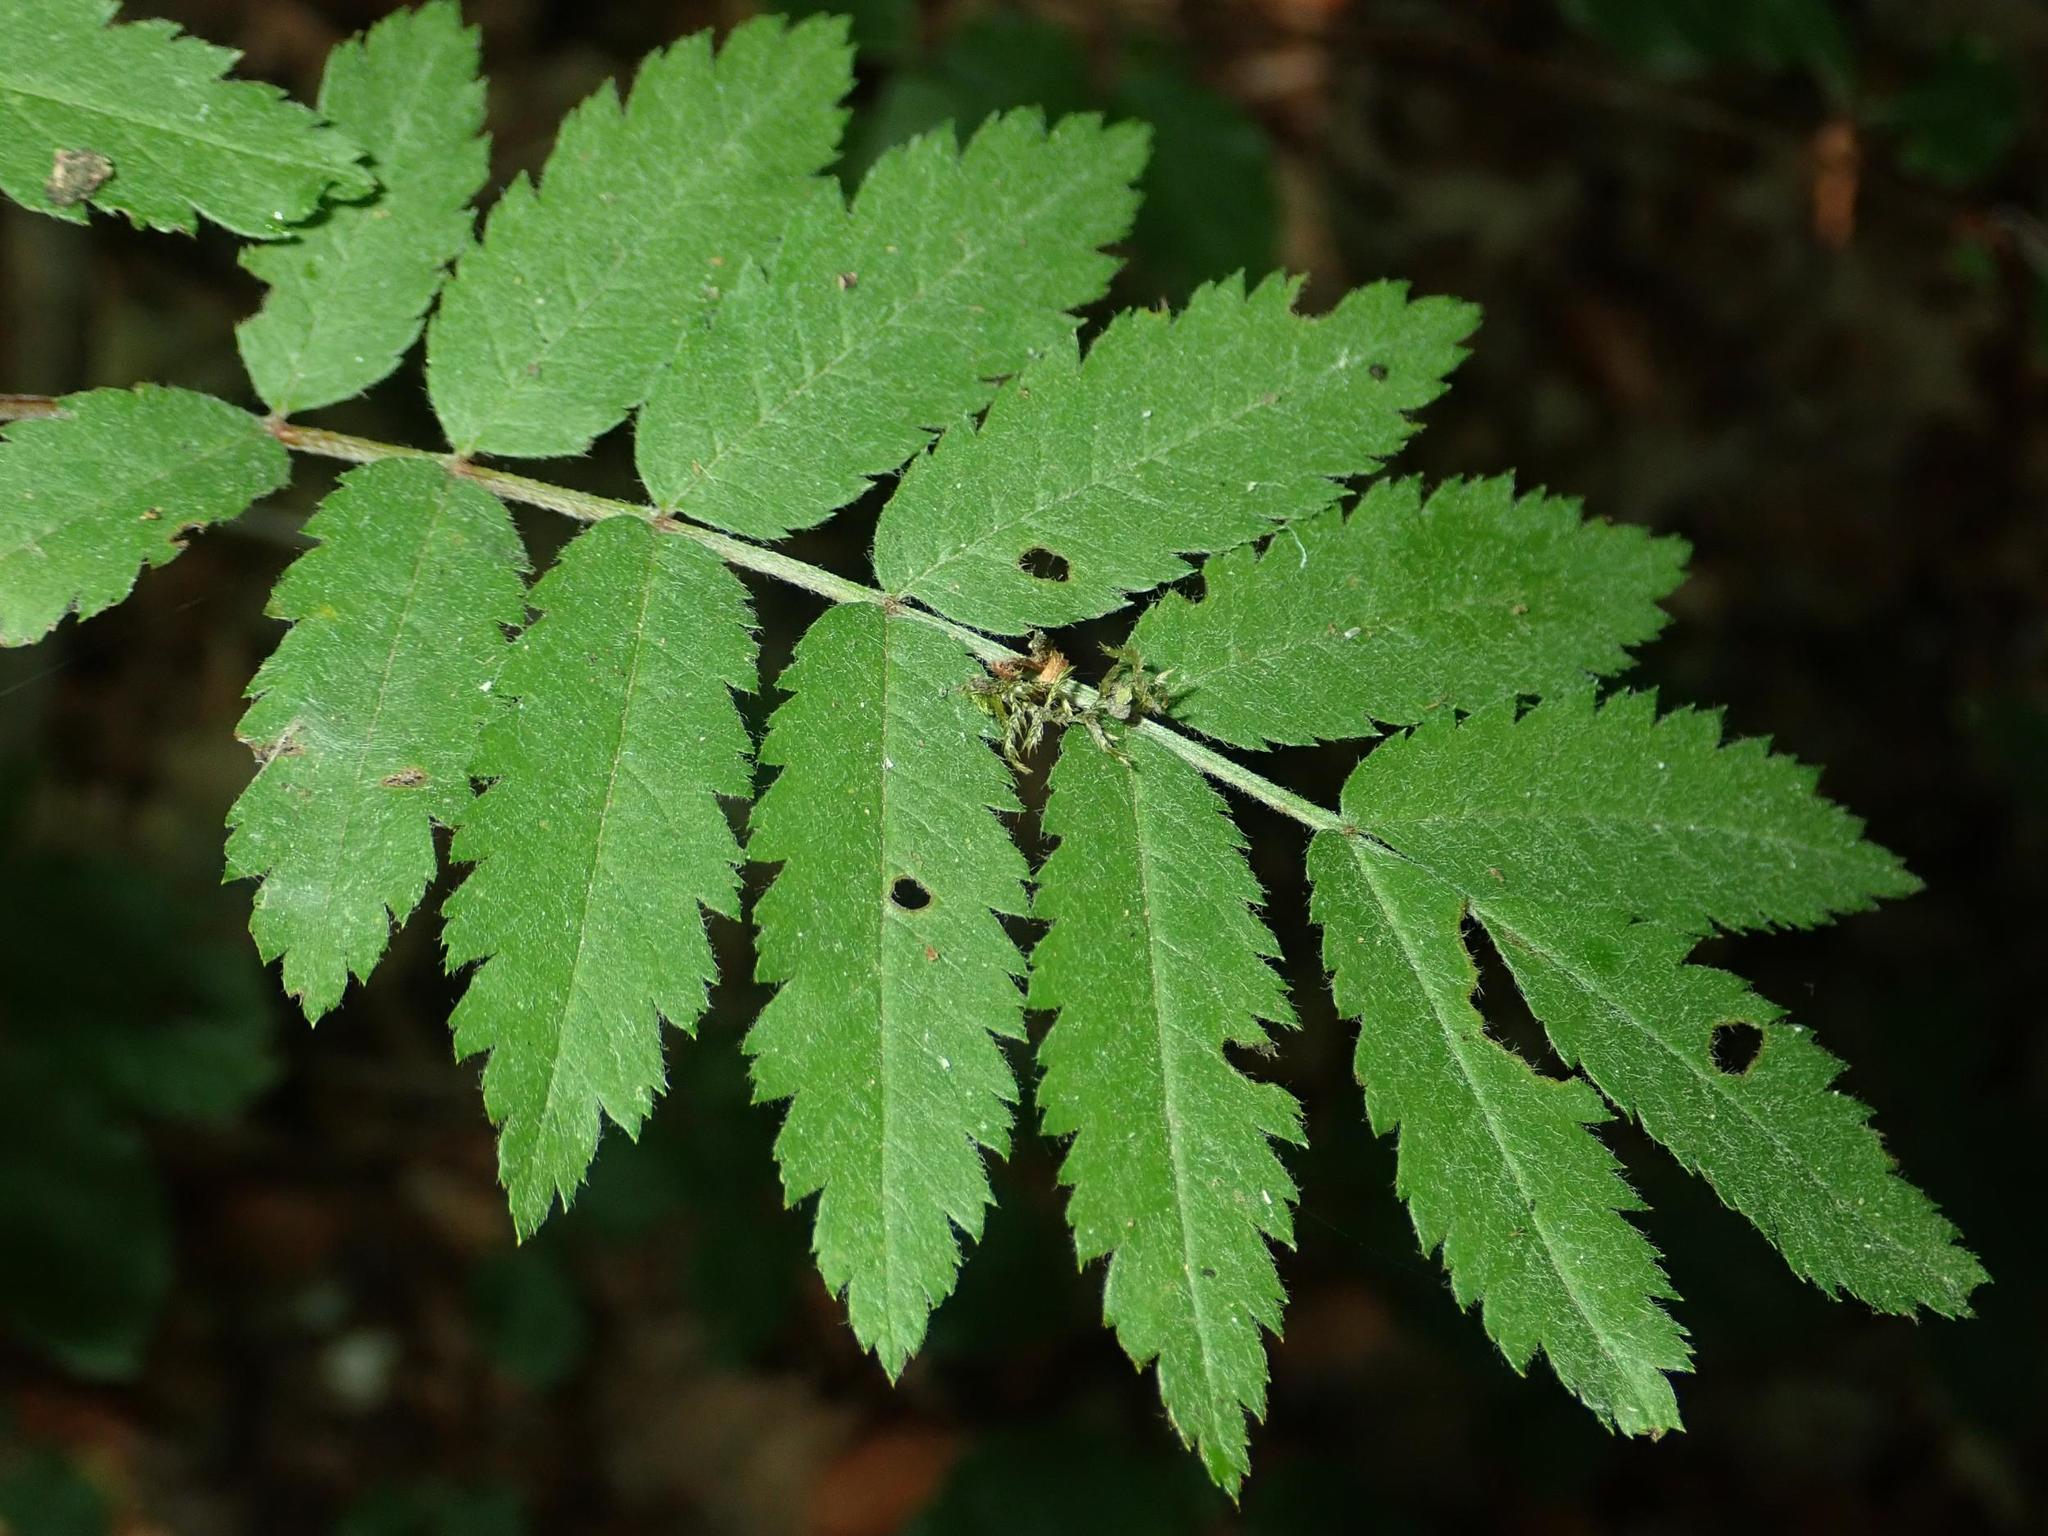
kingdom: Plantae
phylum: Tracheophyta
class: Magnoliopsida
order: Rosales
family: Rosaceae
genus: Sorbus
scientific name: Sorbus aucuparia
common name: Rowan
